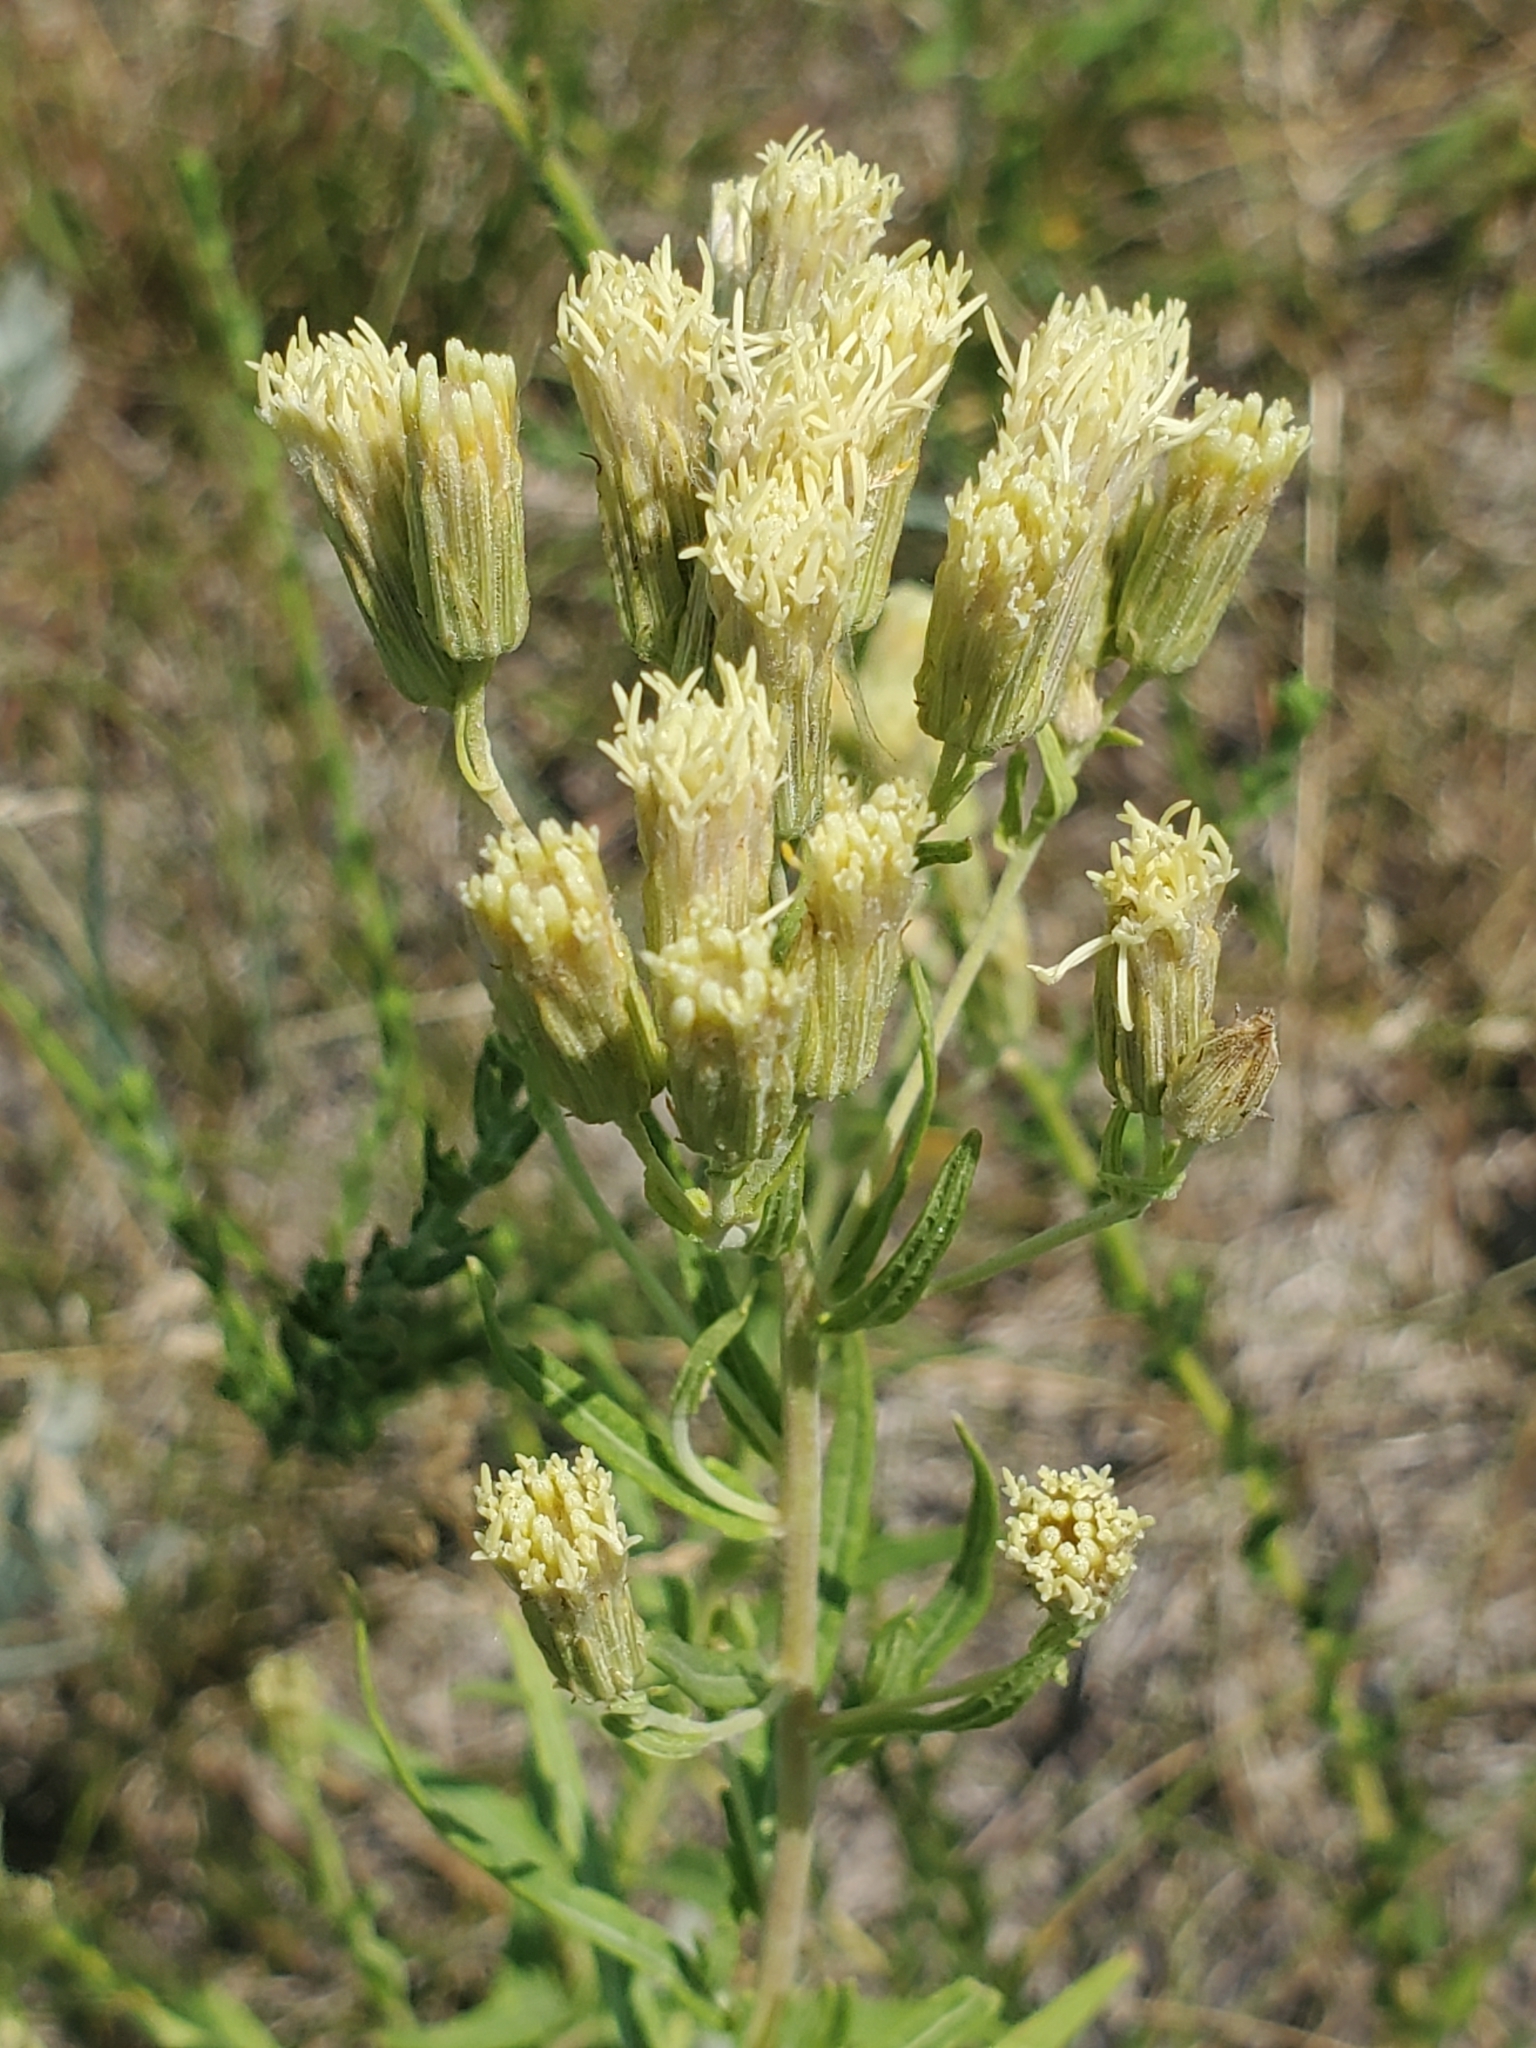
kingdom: Plantae
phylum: Tracheophyta
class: Magnoliopsida
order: Asterales
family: Asteraceae
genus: Brickellia
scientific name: Brickellia eupatorioides
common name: False boneset
